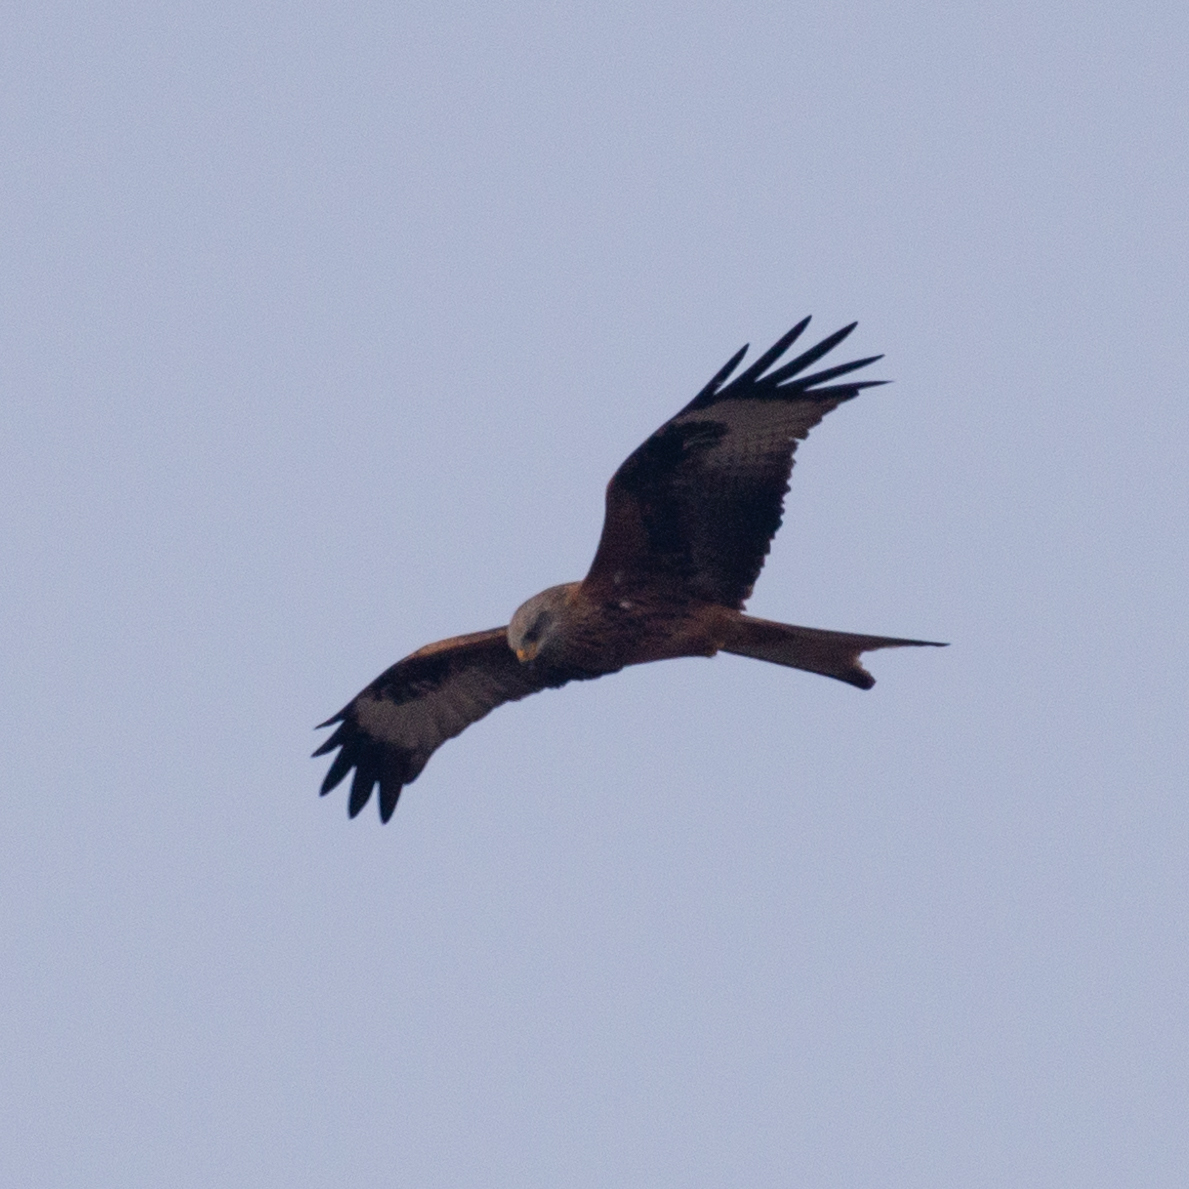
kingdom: Animalia
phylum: Chordata
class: Aves
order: Accipitriformes
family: Accipitridae
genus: Milvus
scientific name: Milvus milvus
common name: Red kite
